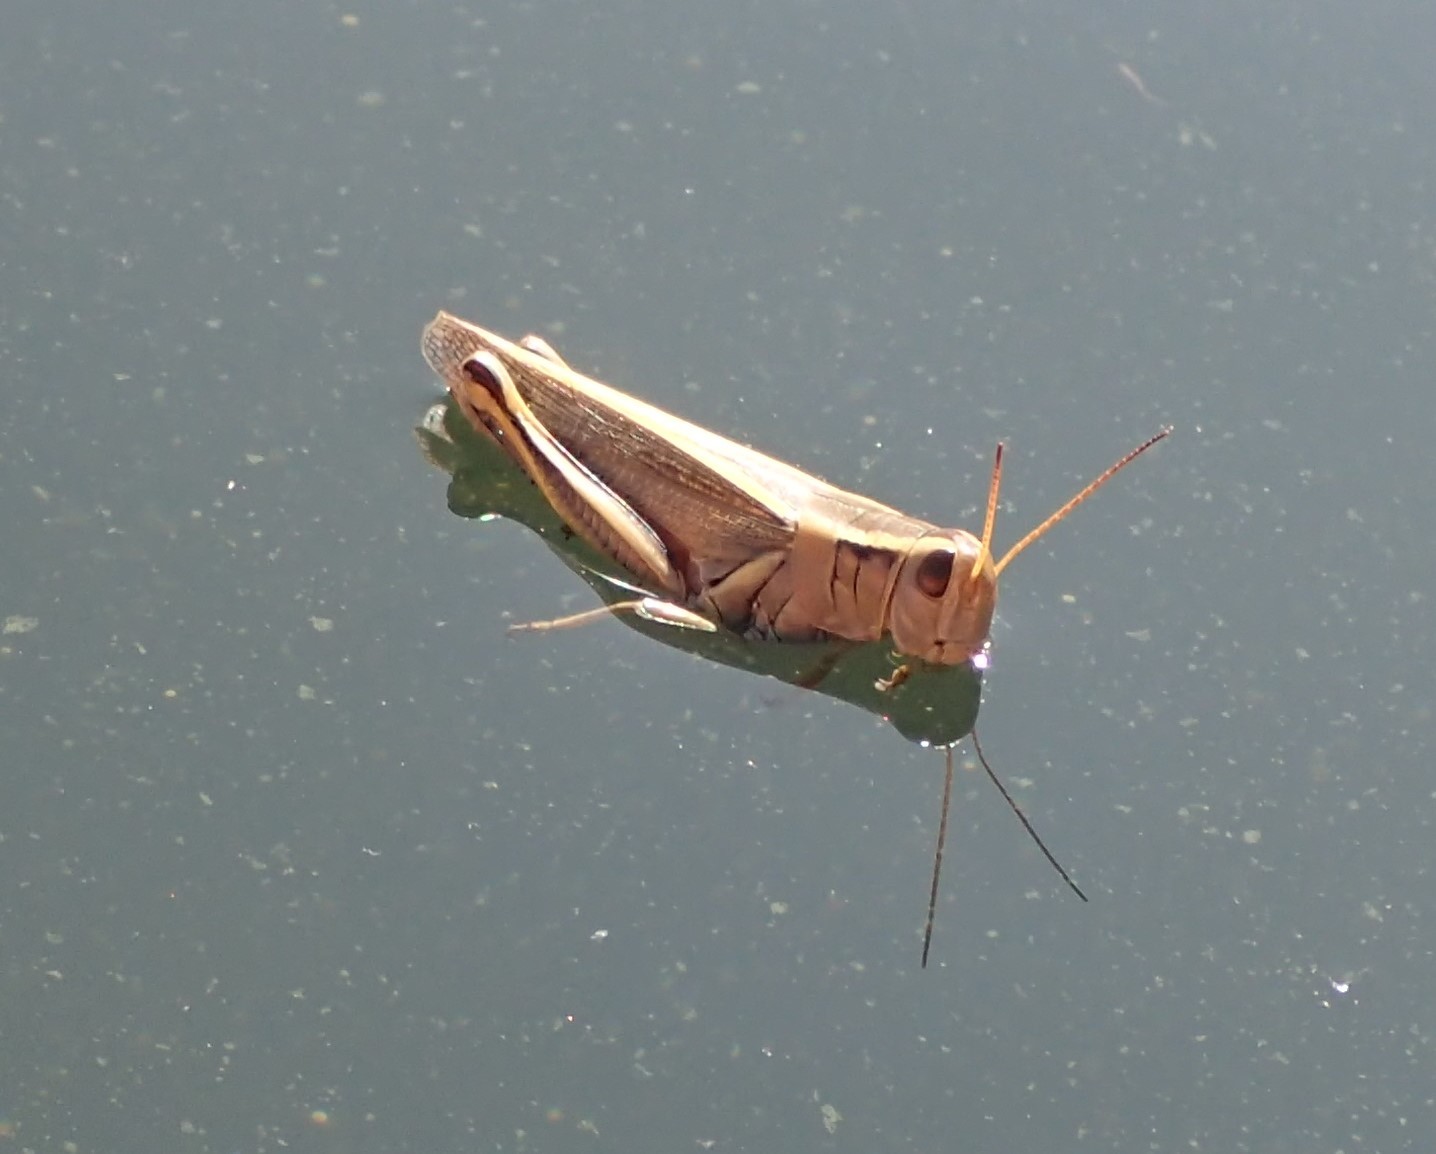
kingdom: Animalia
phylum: Arthropoda
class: Insecta
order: Orthoptera
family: Acrididae
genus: Melanoplus
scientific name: Melanoplus bivittatus
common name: Two-striped grasshopper
